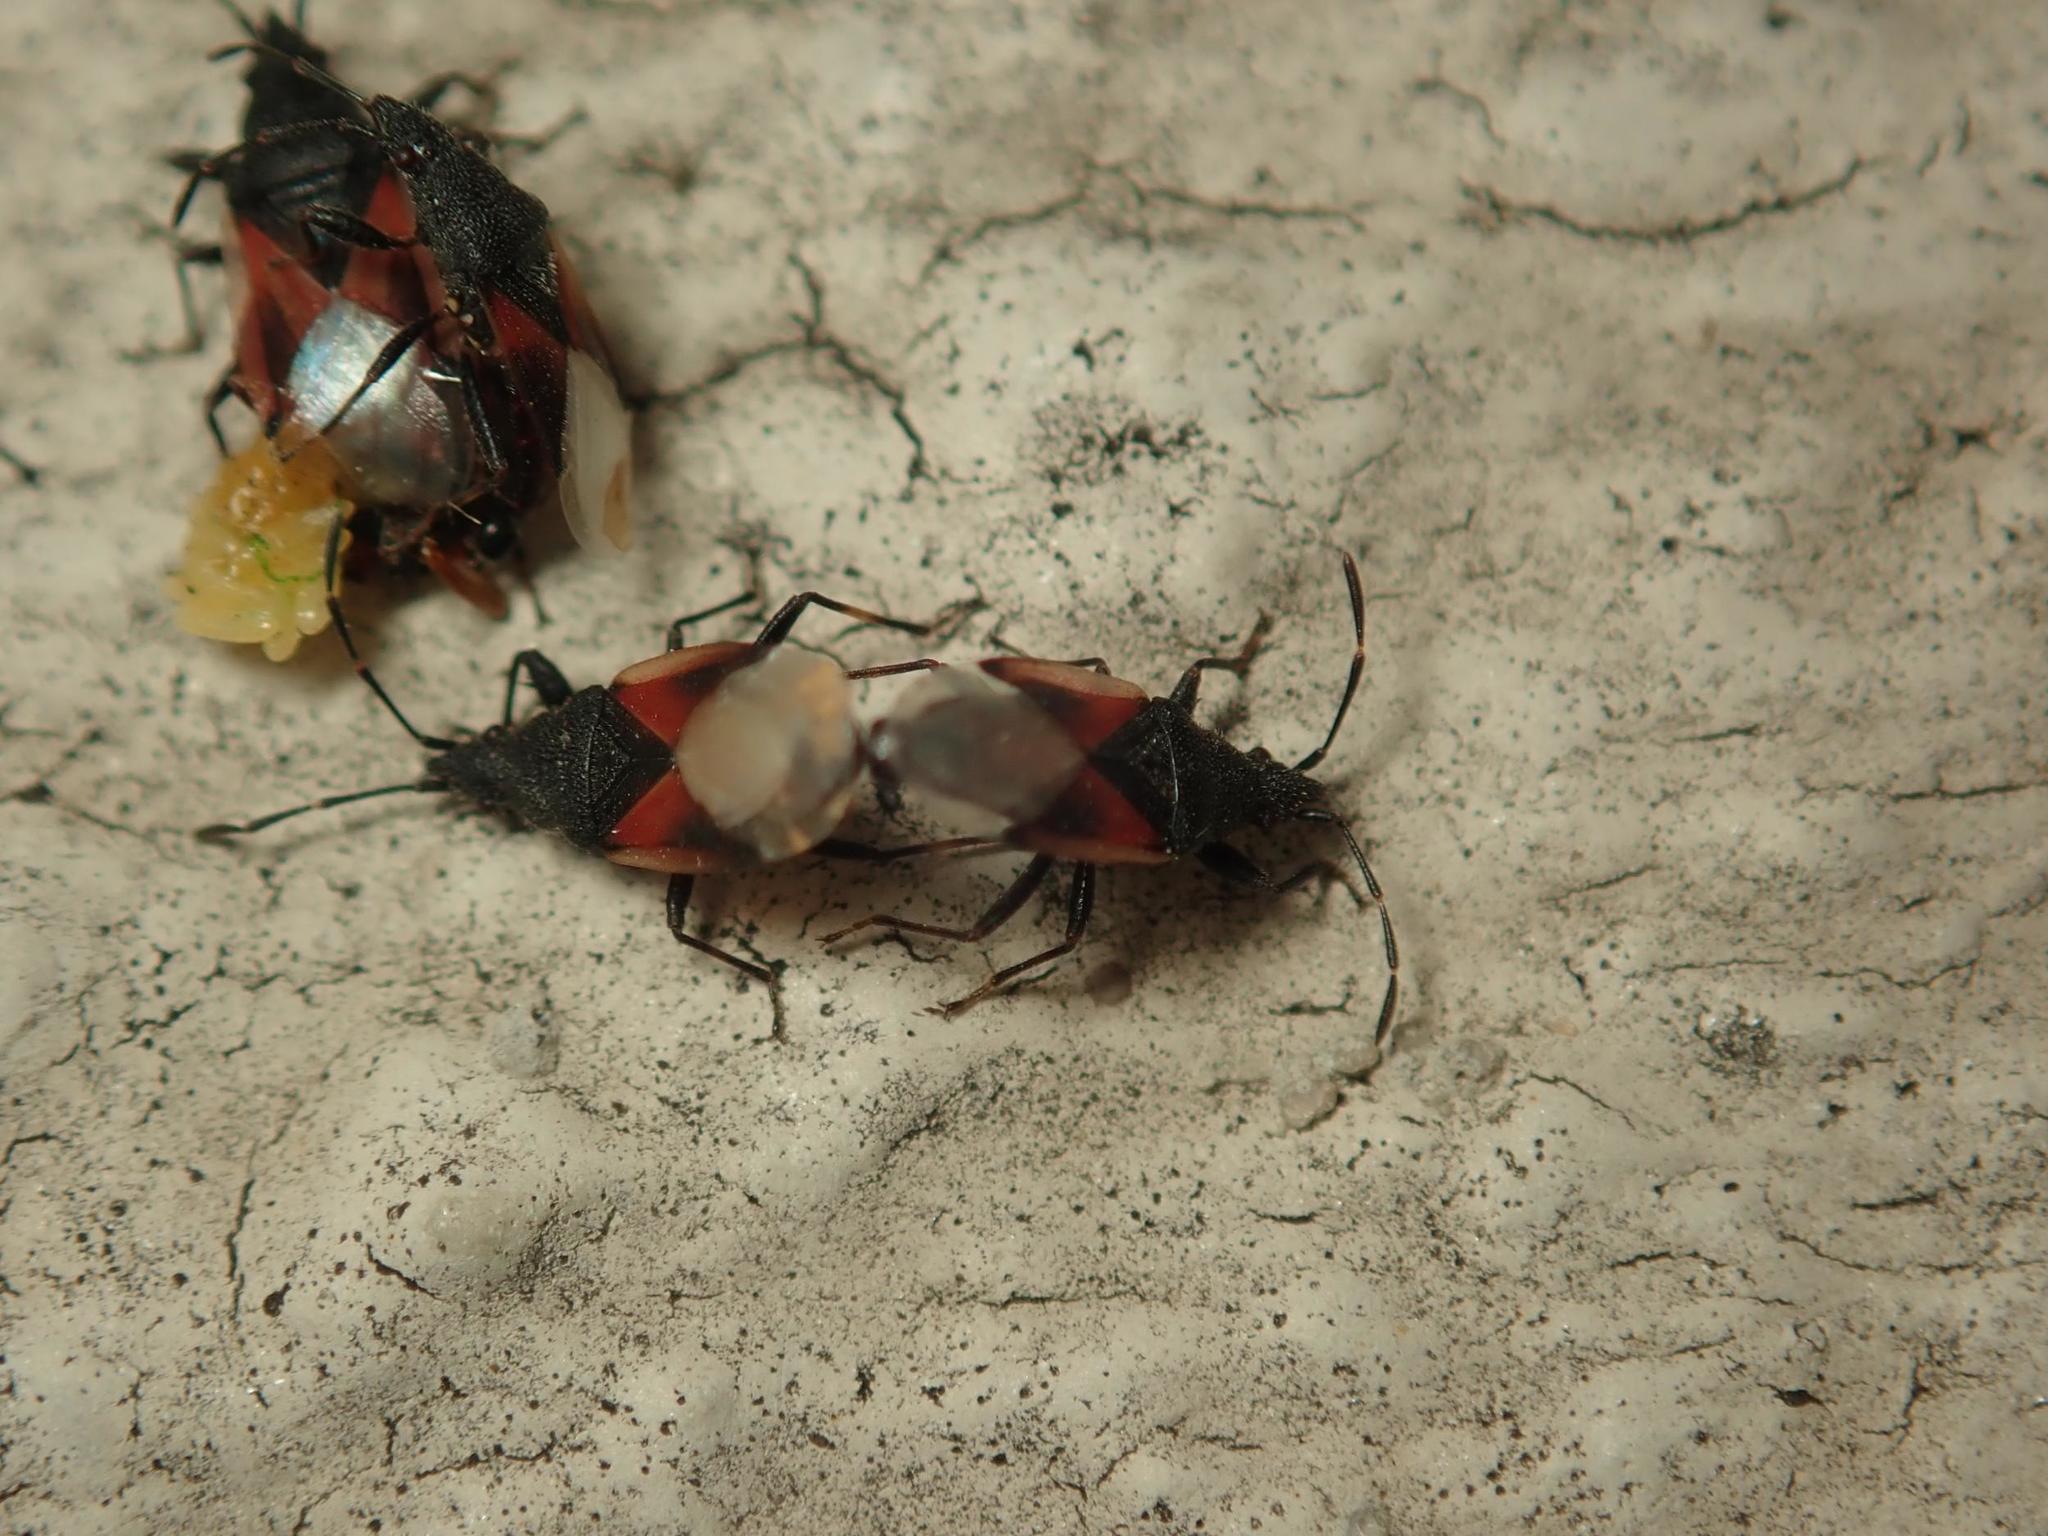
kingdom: Animalia
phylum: Arthropoda
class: Insecta
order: Hemiptera
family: Oxycarenidae
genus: Oxycarenus
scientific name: Oxycarenus lavaterae
